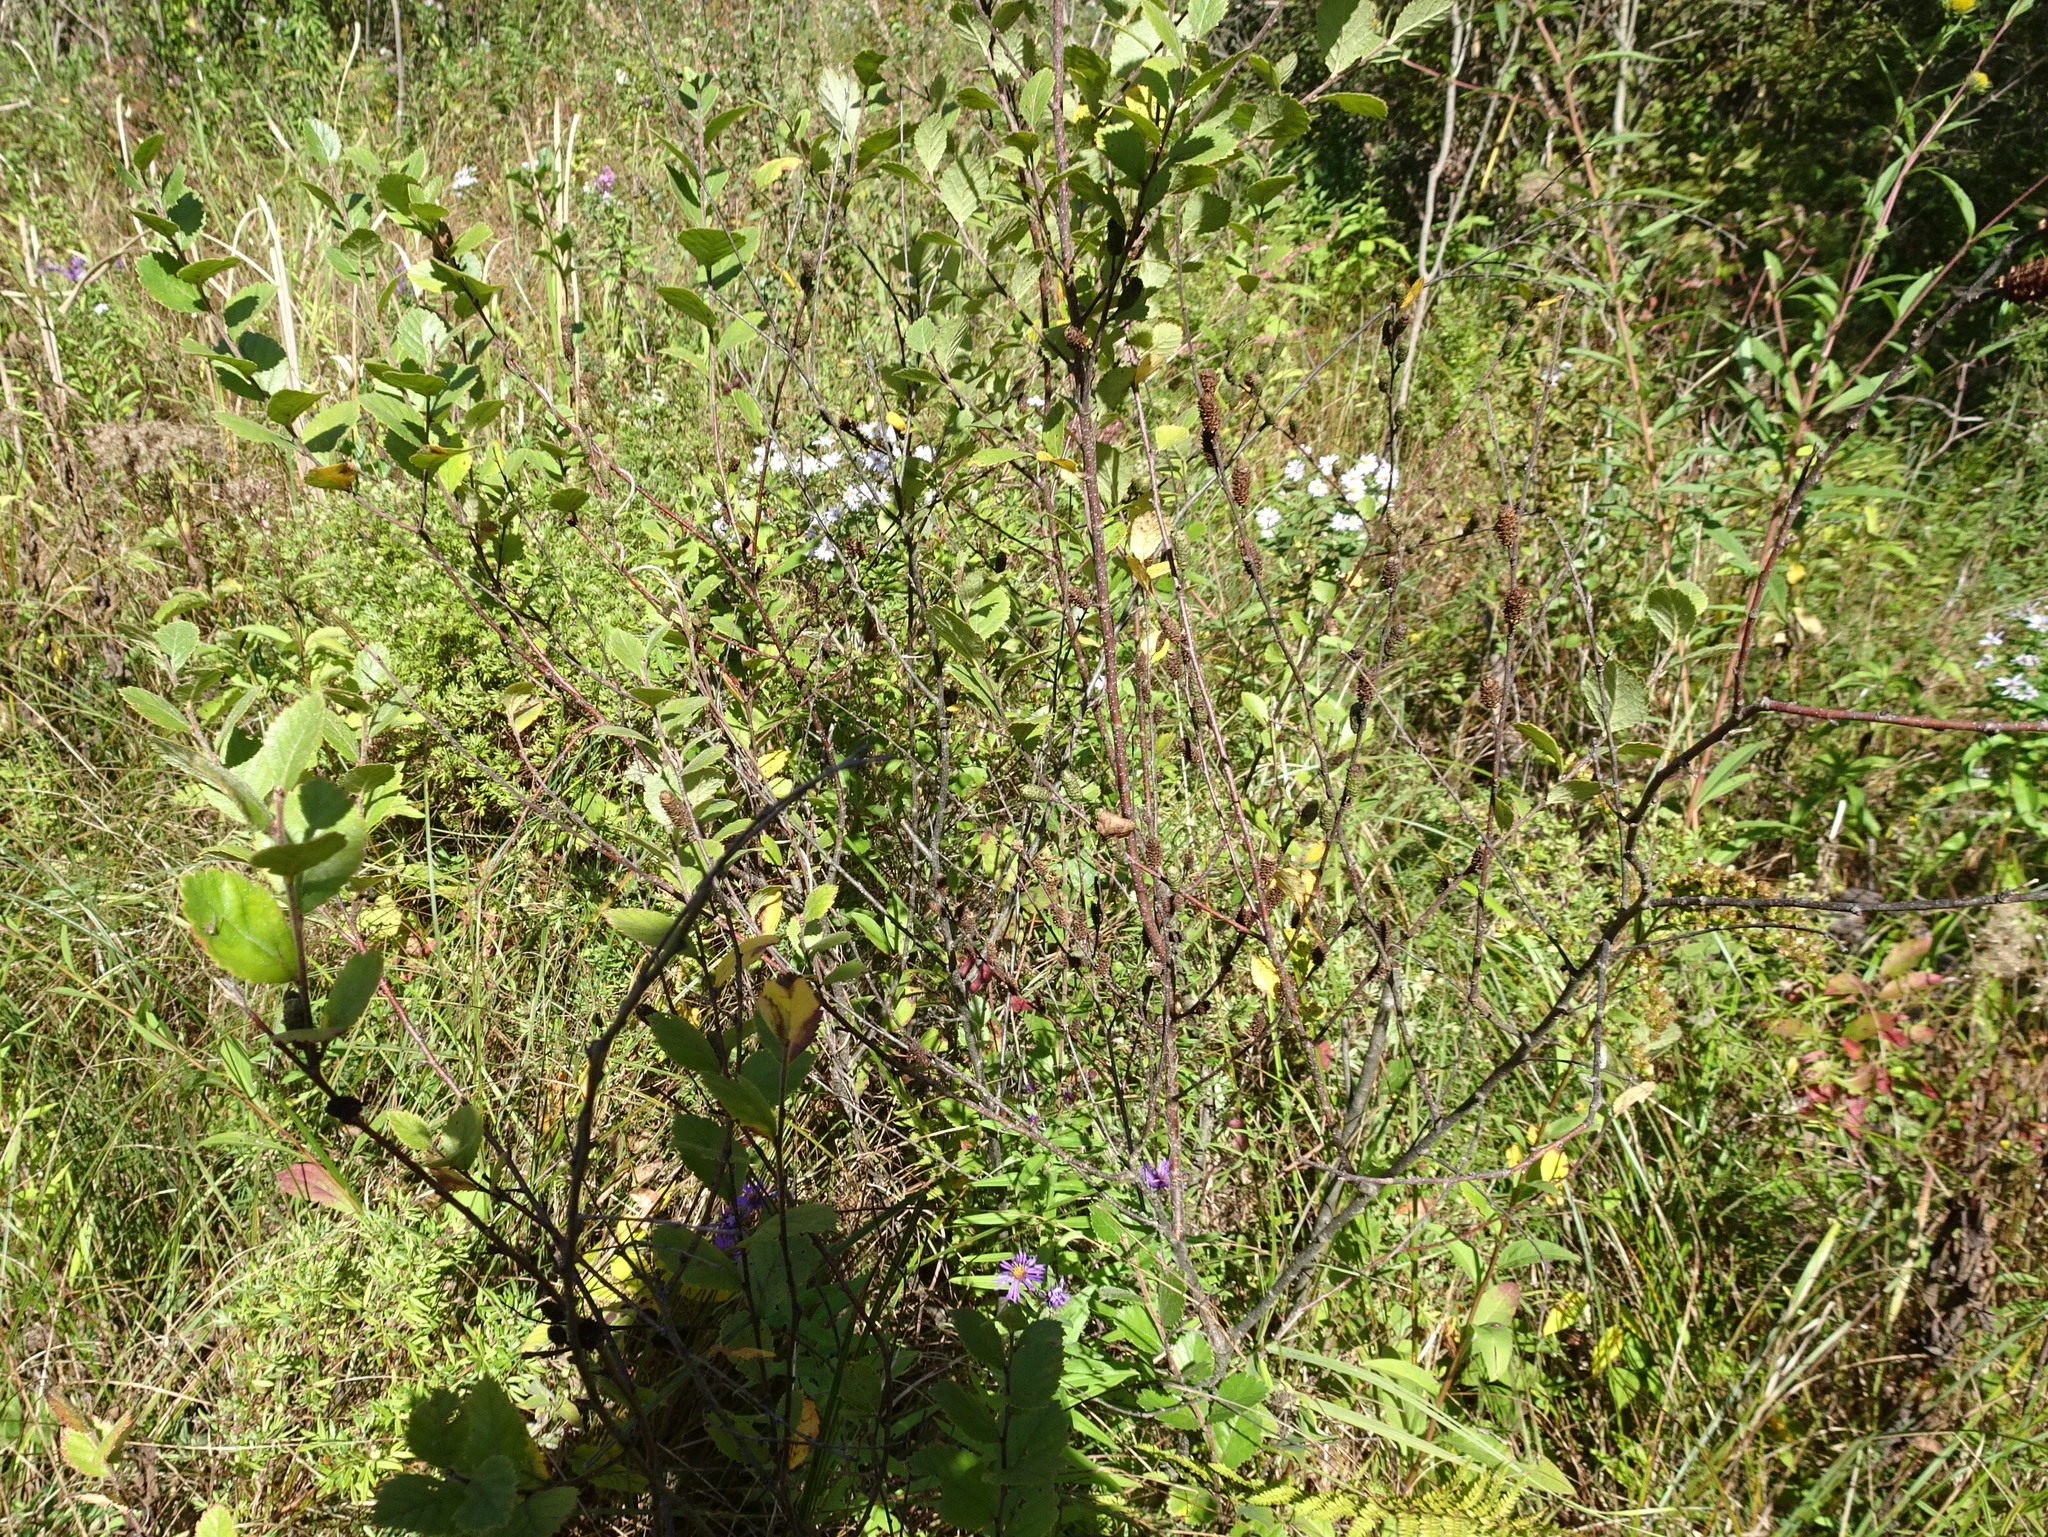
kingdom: Plantae
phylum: Tracheophyta
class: Magnoliopsida
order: Fagales
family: Betulaceae
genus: Betula
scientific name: Betula pumila
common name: Bog birch
